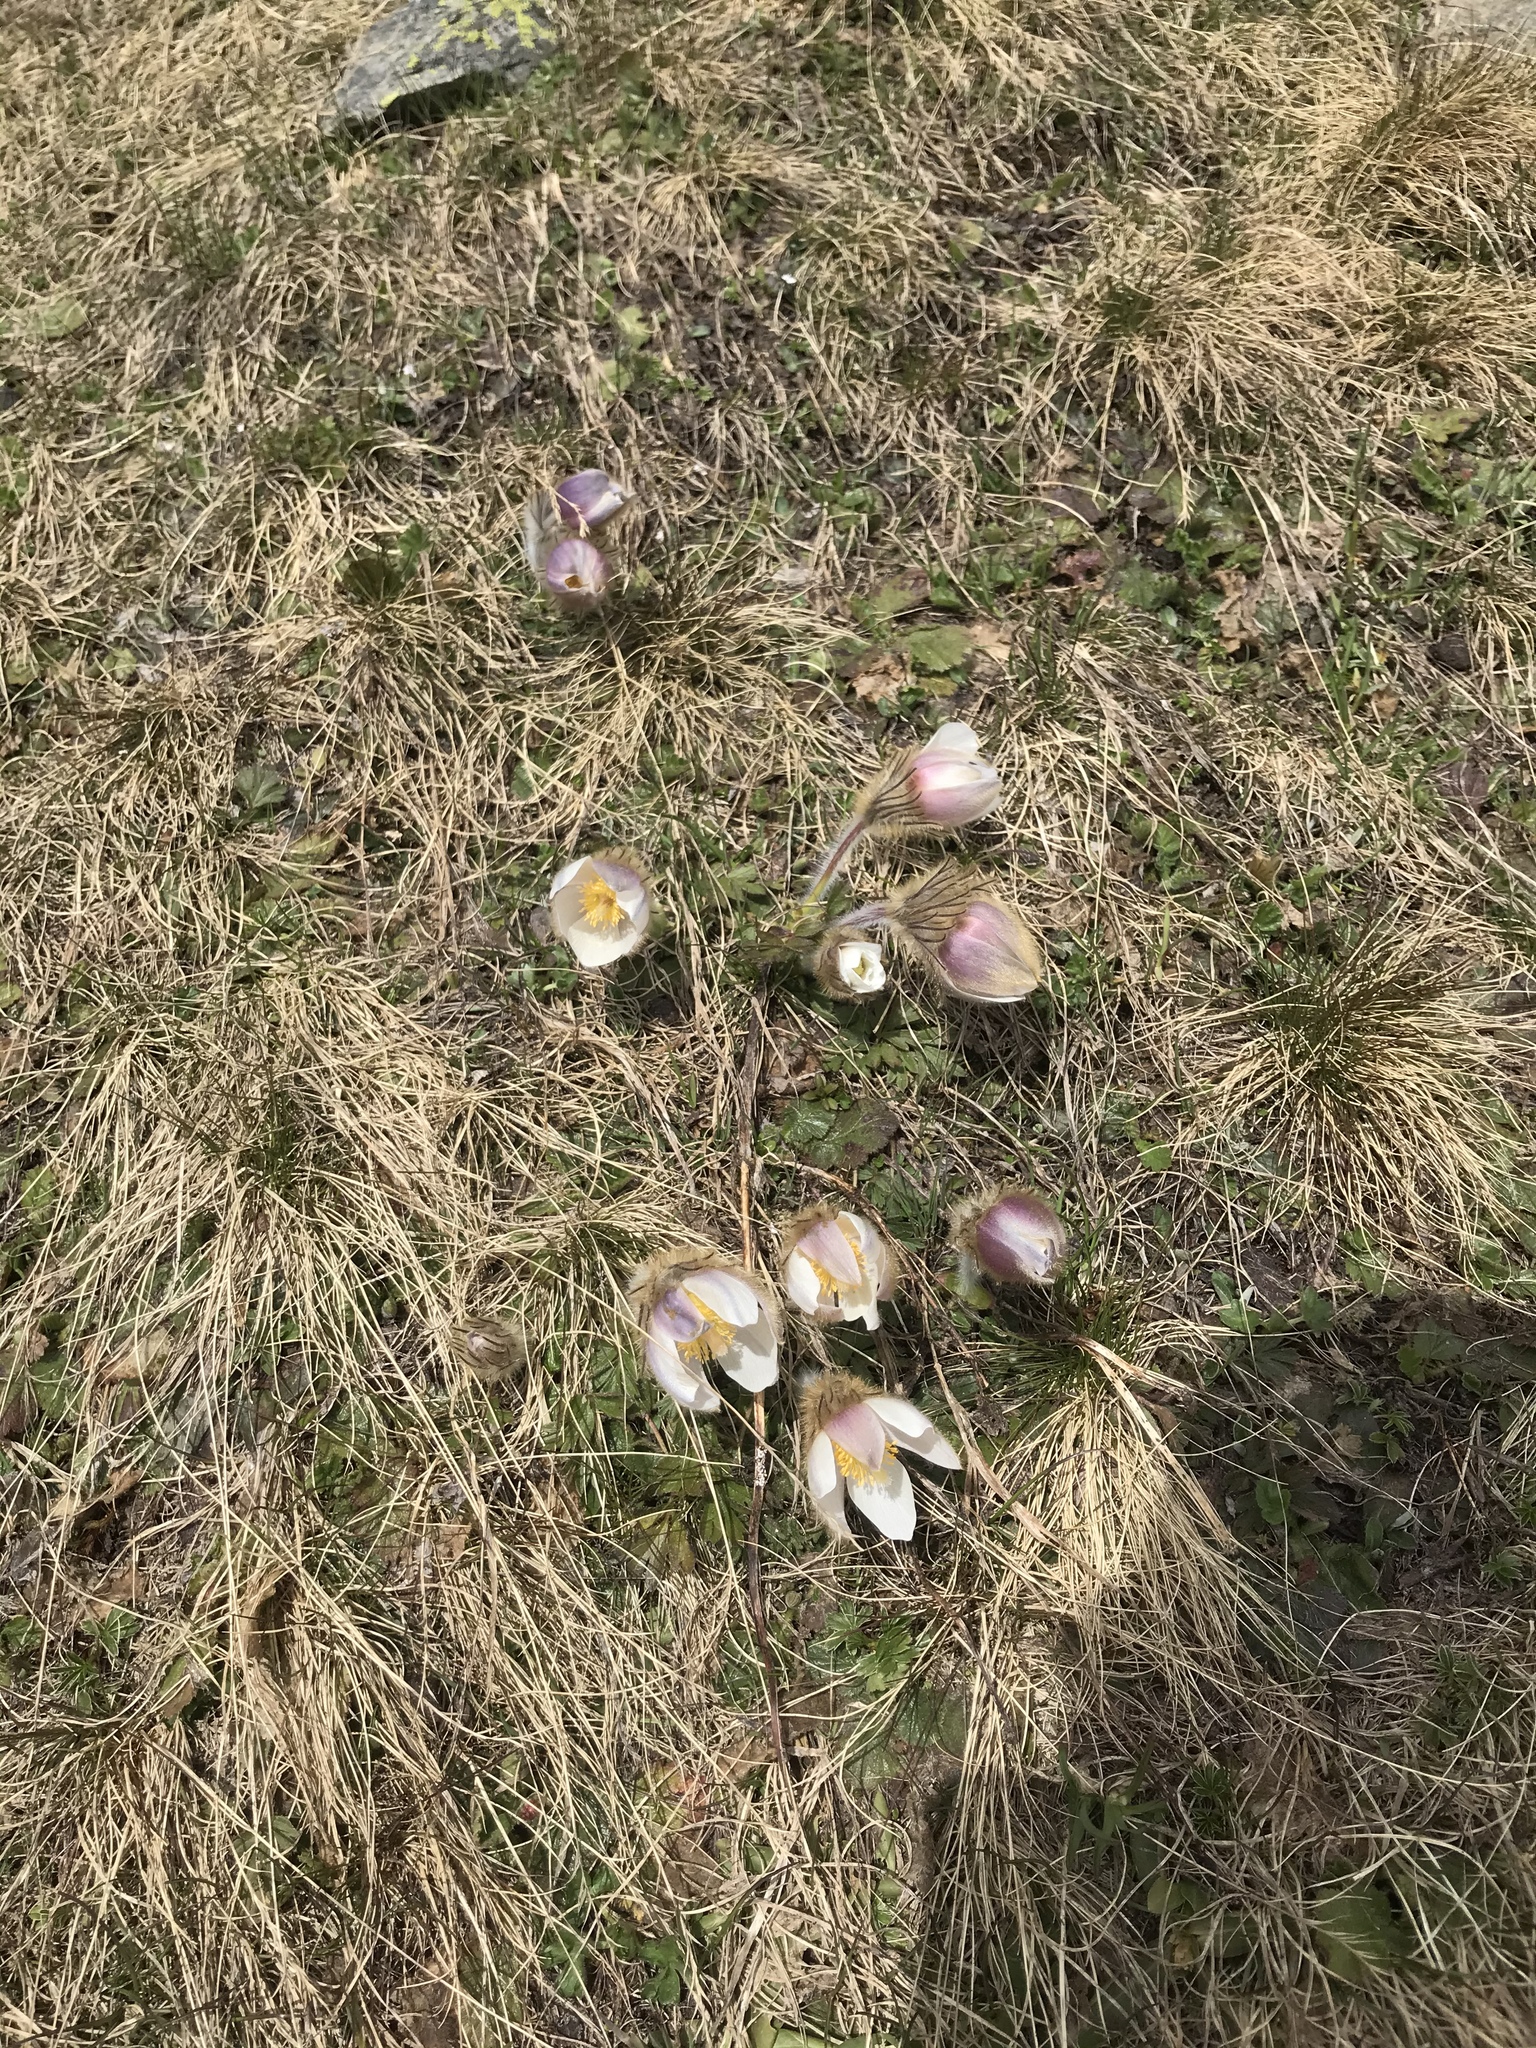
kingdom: Plantae
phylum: Tracheophyta
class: Magnoliopsida
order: Ranunculales
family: Ranunculaceae
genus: Pulsatilla
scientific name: Pulsatilla vernalis
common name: Spring pasque flower
